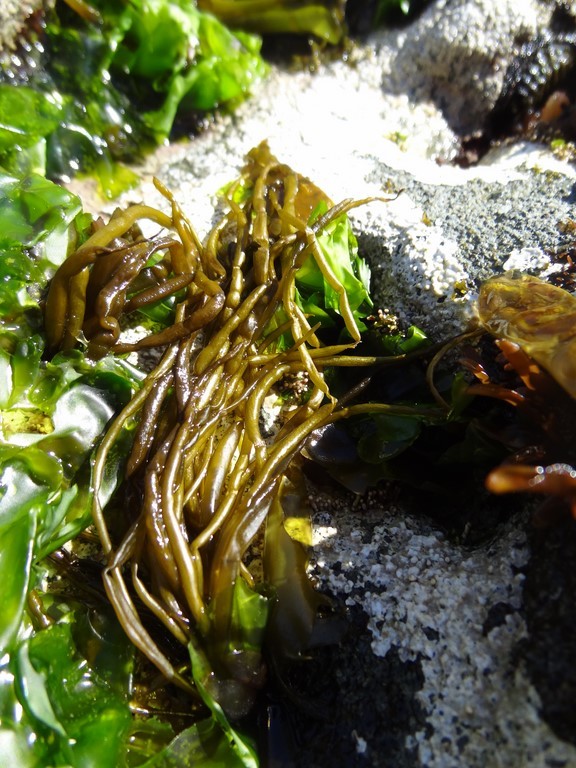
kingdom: Chromista
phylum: Ochrophyta
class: Phaeophyceae
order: Scytosiphonales
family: Scytosiphonaceae
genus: Scytosiphon
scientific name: Scytosiphon lomentaria
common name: Beanweed
